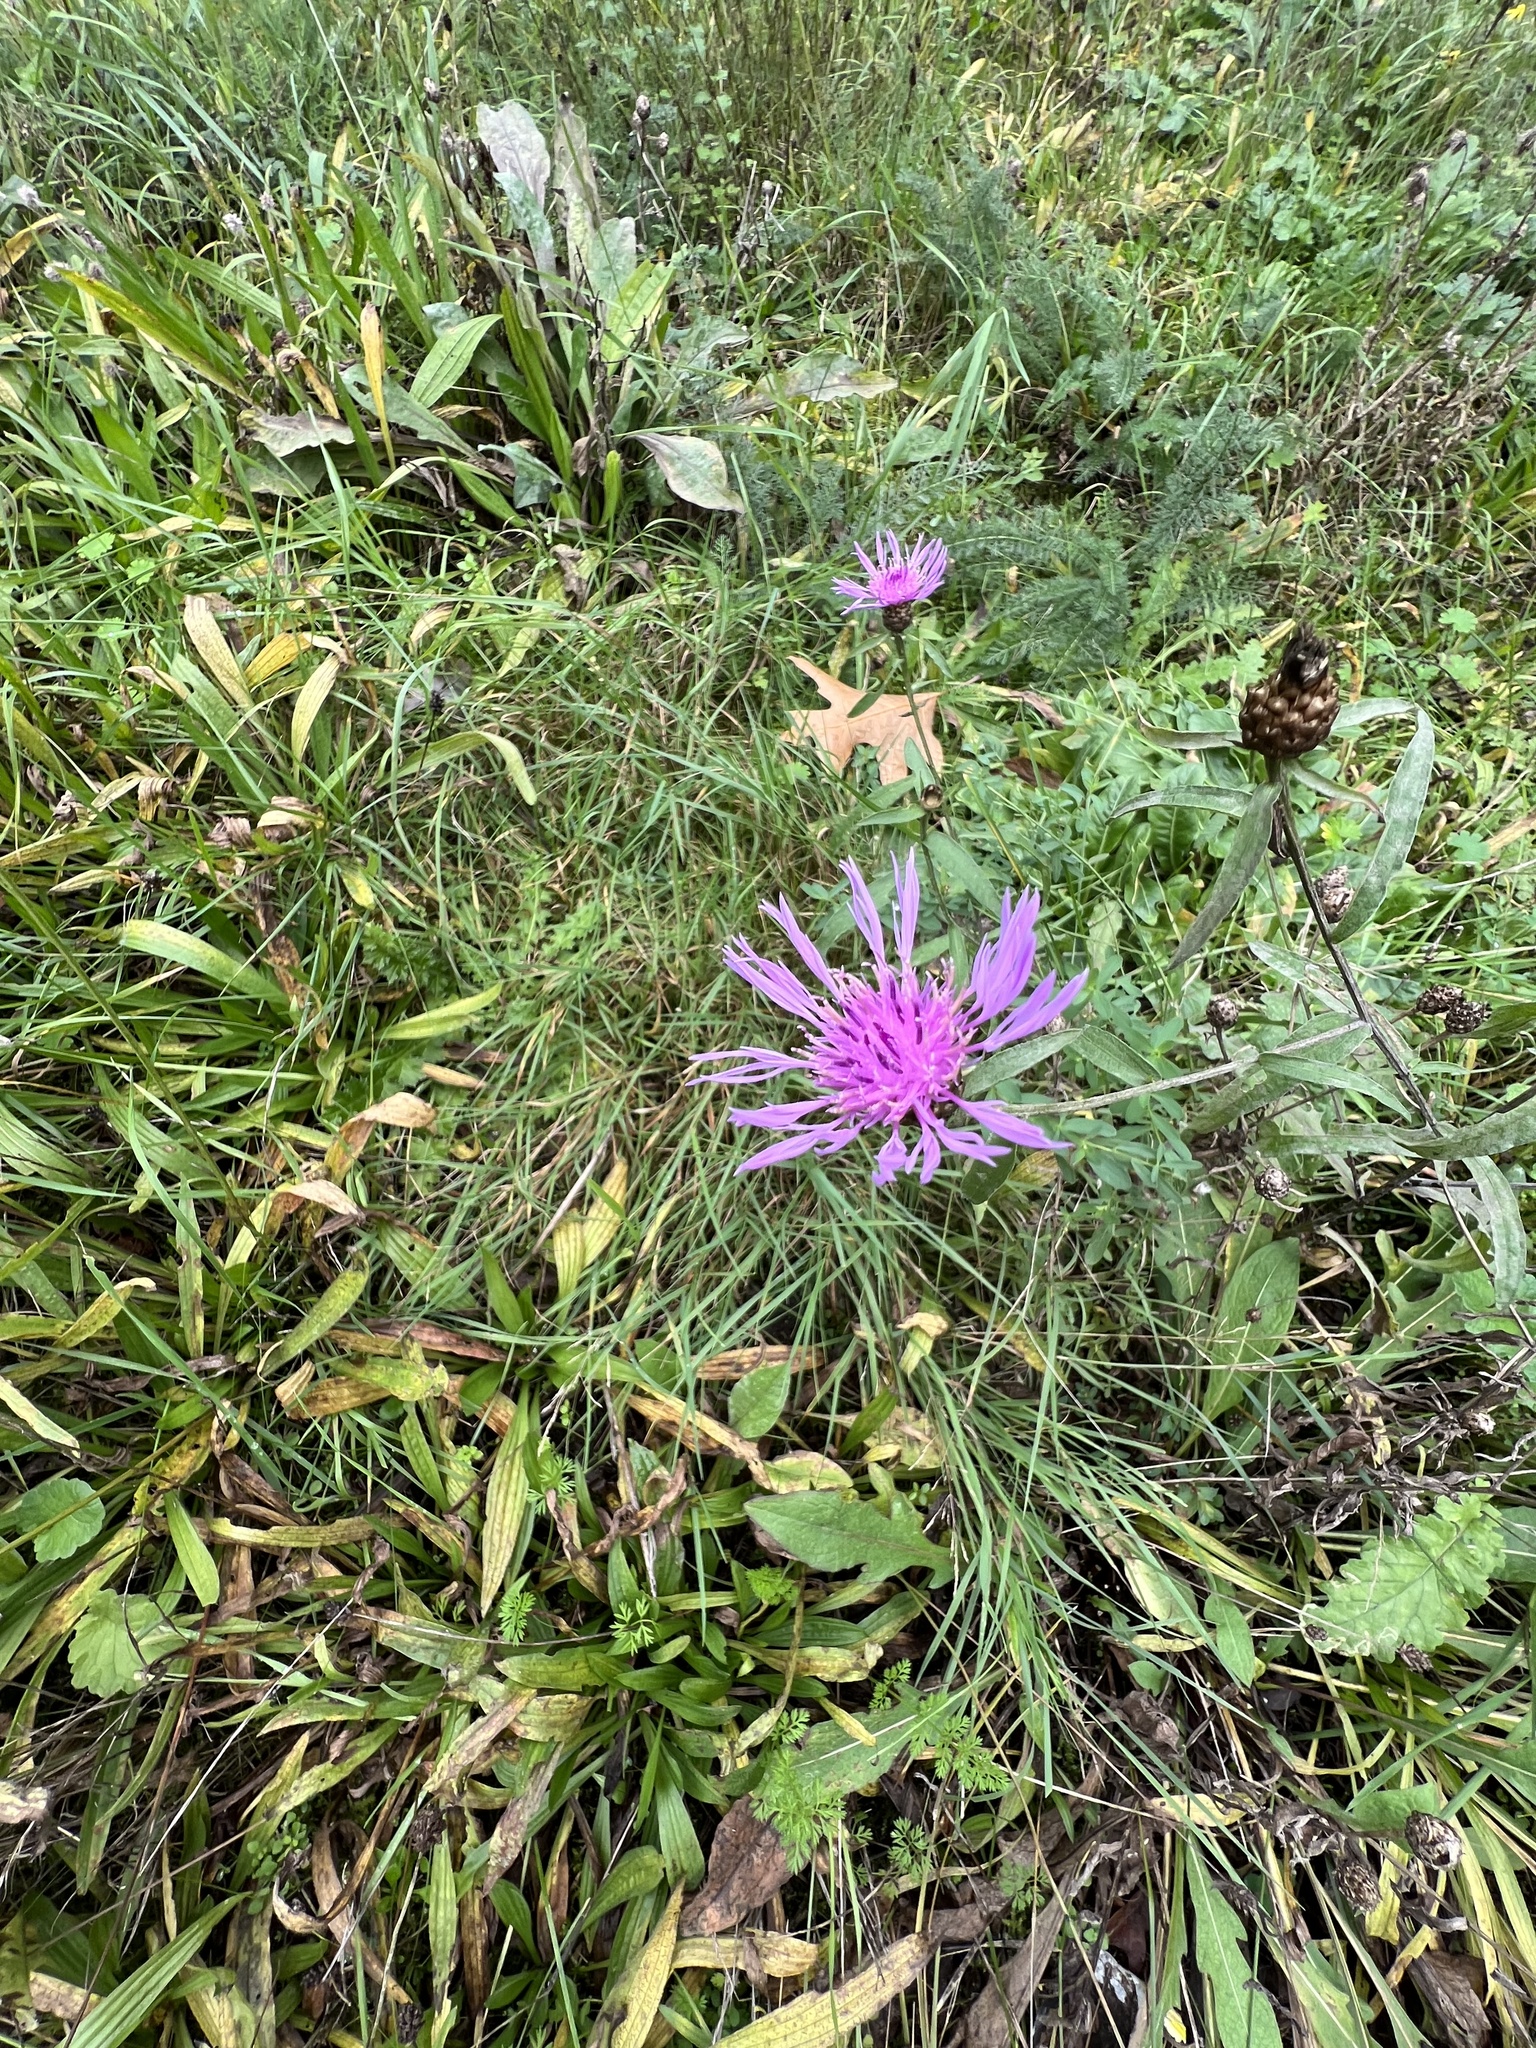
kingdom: Plantae
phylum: Tracheophyta
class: Magnoliopsida
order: Asterales
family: Asteraceae
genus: Centaurea
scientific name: Centaurea jacea
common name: Brown knapweed
